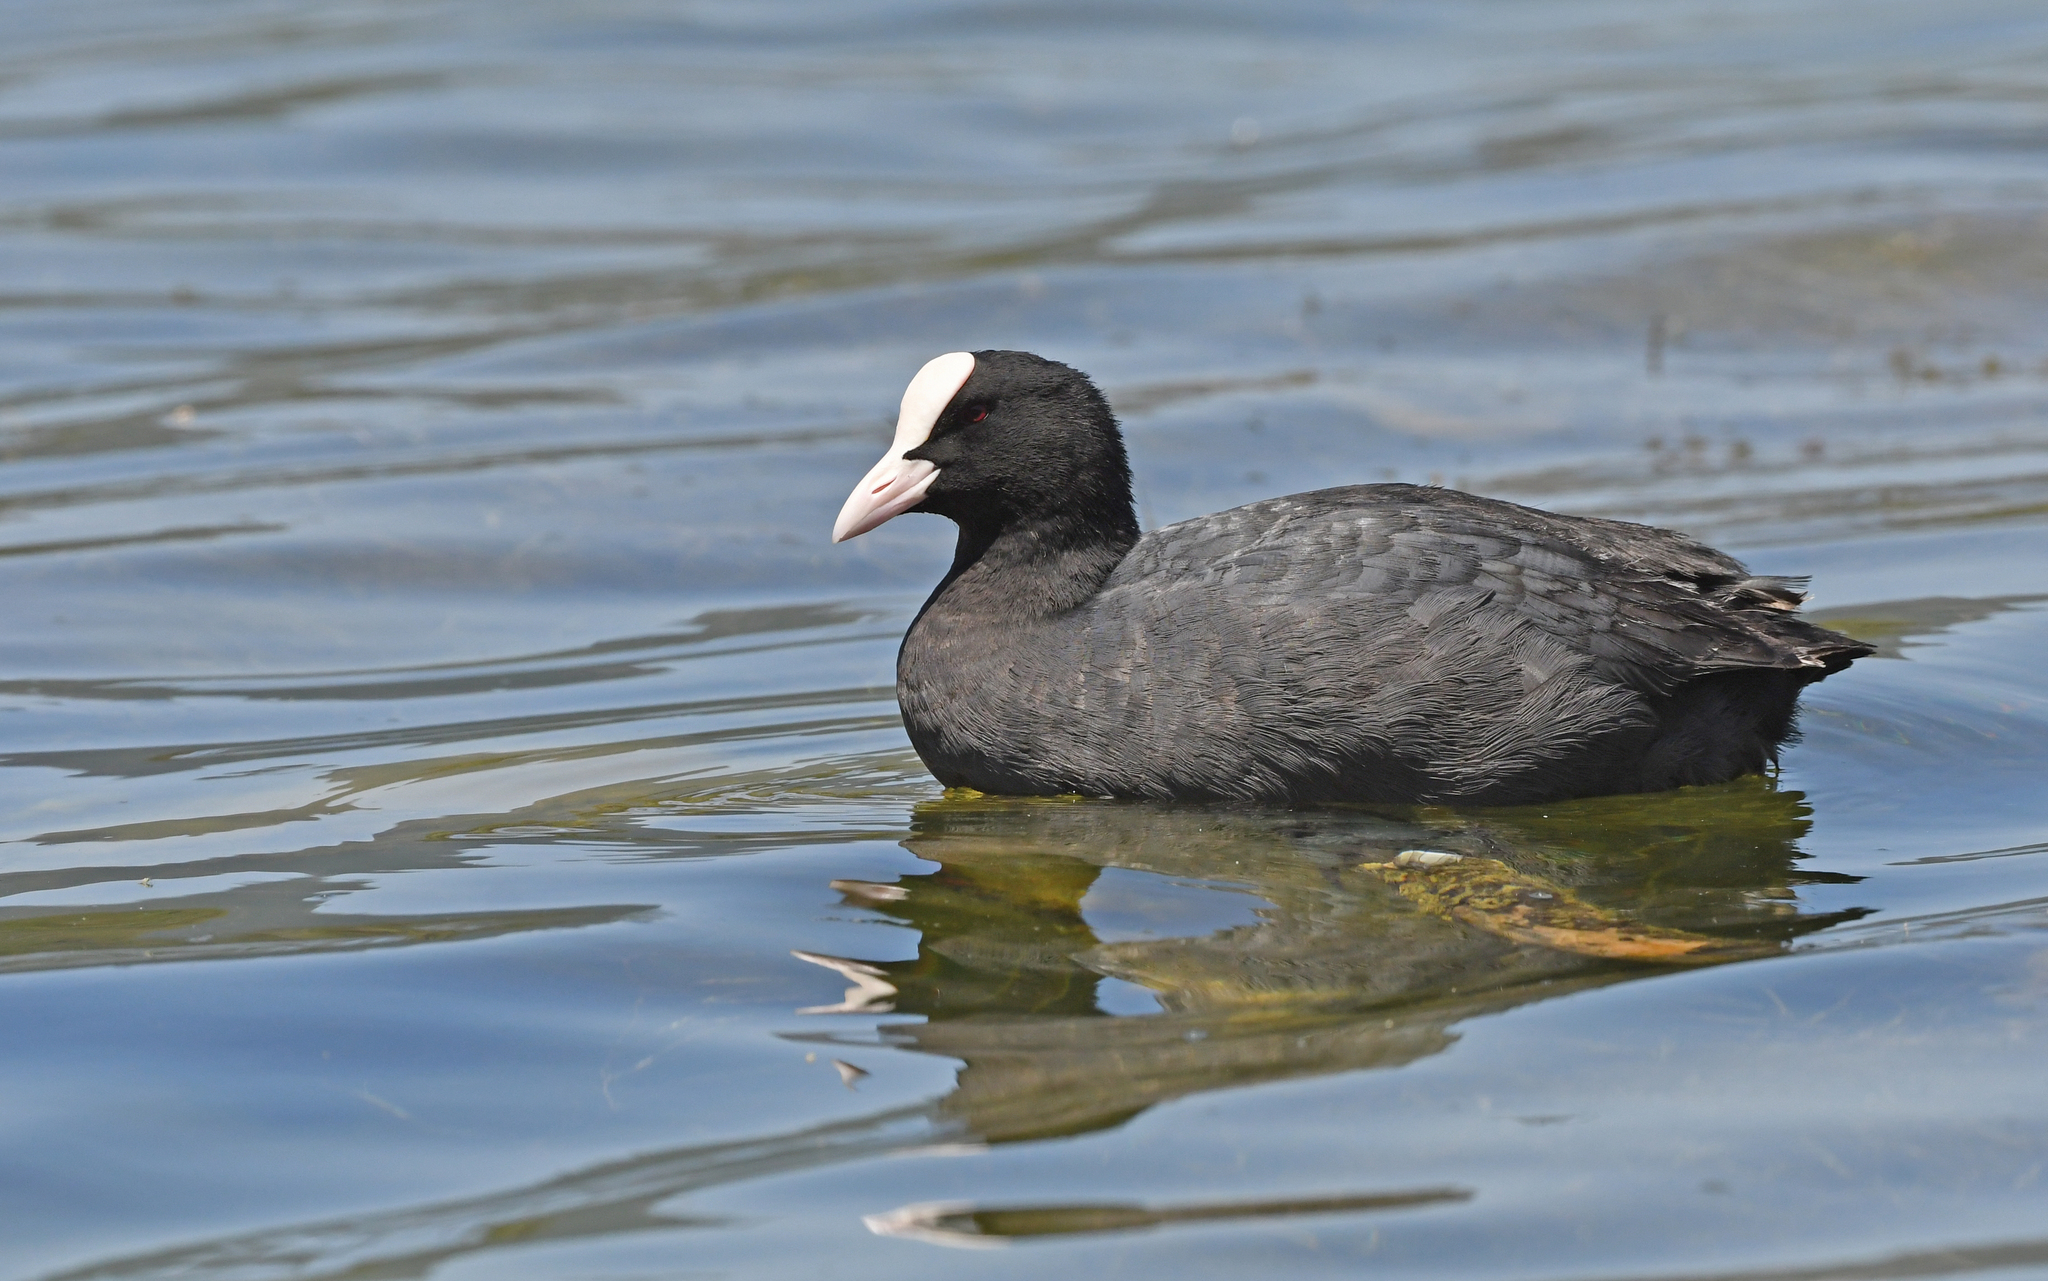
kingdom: Animalia
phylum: Chordata
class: Aves
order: Gruiformes
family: Rallidae
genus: Fulica
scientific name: Fulica atra
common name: Eurasian coot
